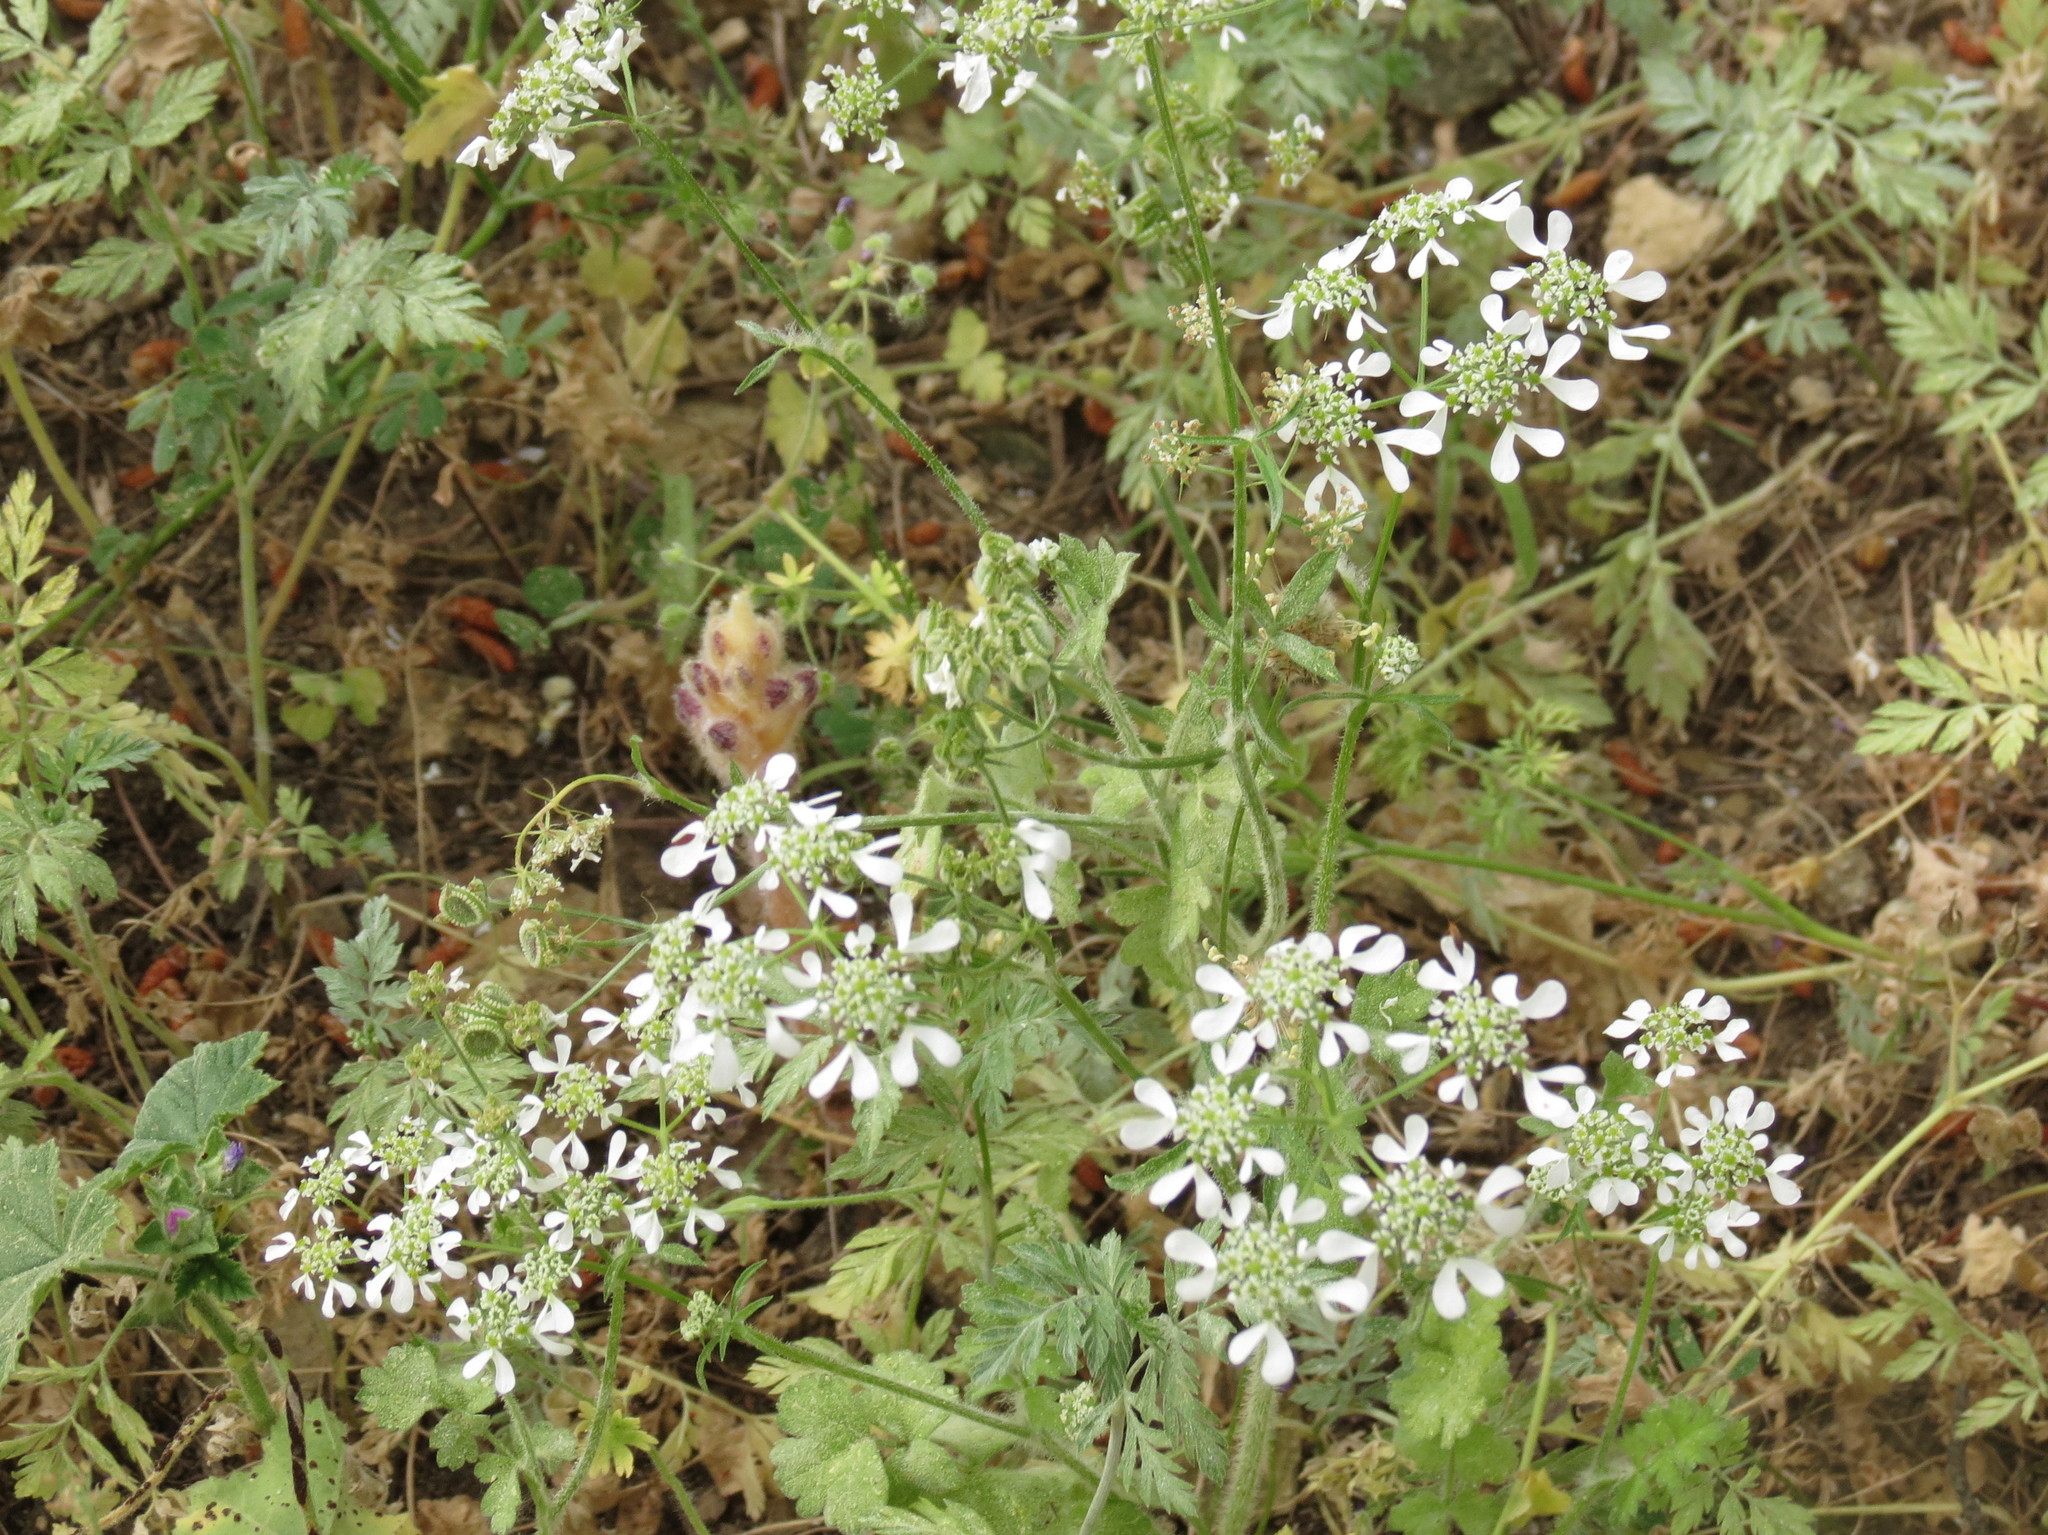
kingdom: Plantae
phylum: Tracheophyta
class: Magnoliopsida
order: Apiales
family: Apiaceae
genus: Tordylium
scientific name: Tordylium apulum
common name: Mediterranean hartwort
